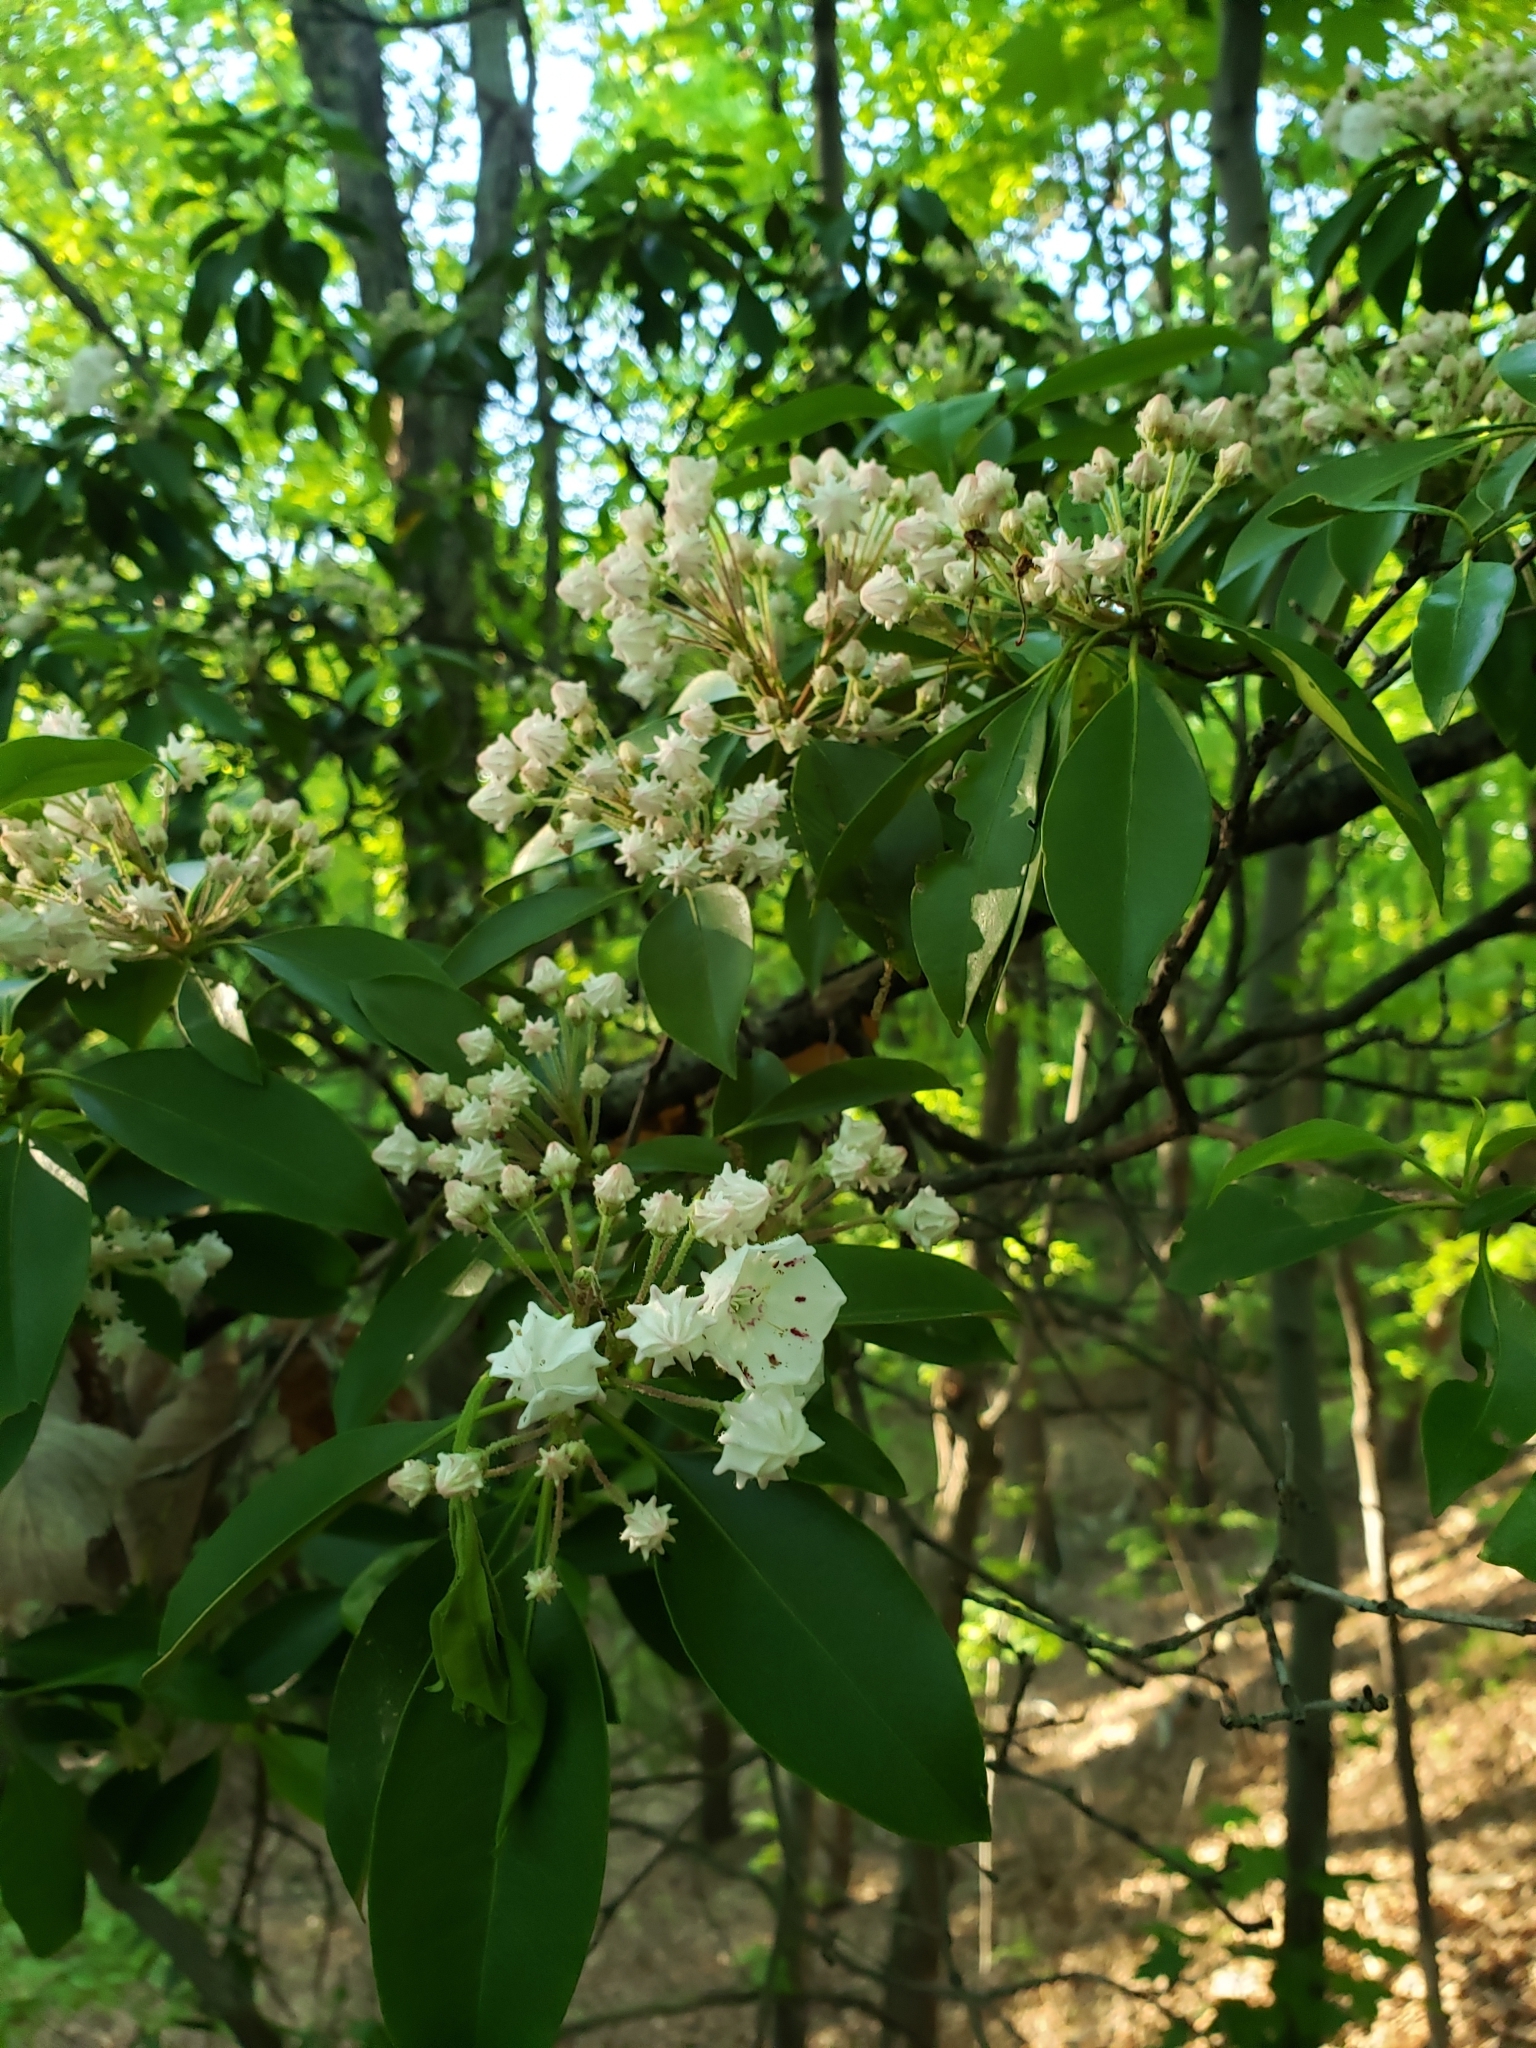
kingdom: Plantae
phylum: Tracheophyta
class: Magnoliopsida
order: Ericales
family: Ericaceae
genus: Kalmia
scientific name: Kalmia latifolia
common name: Mountain-laurel
